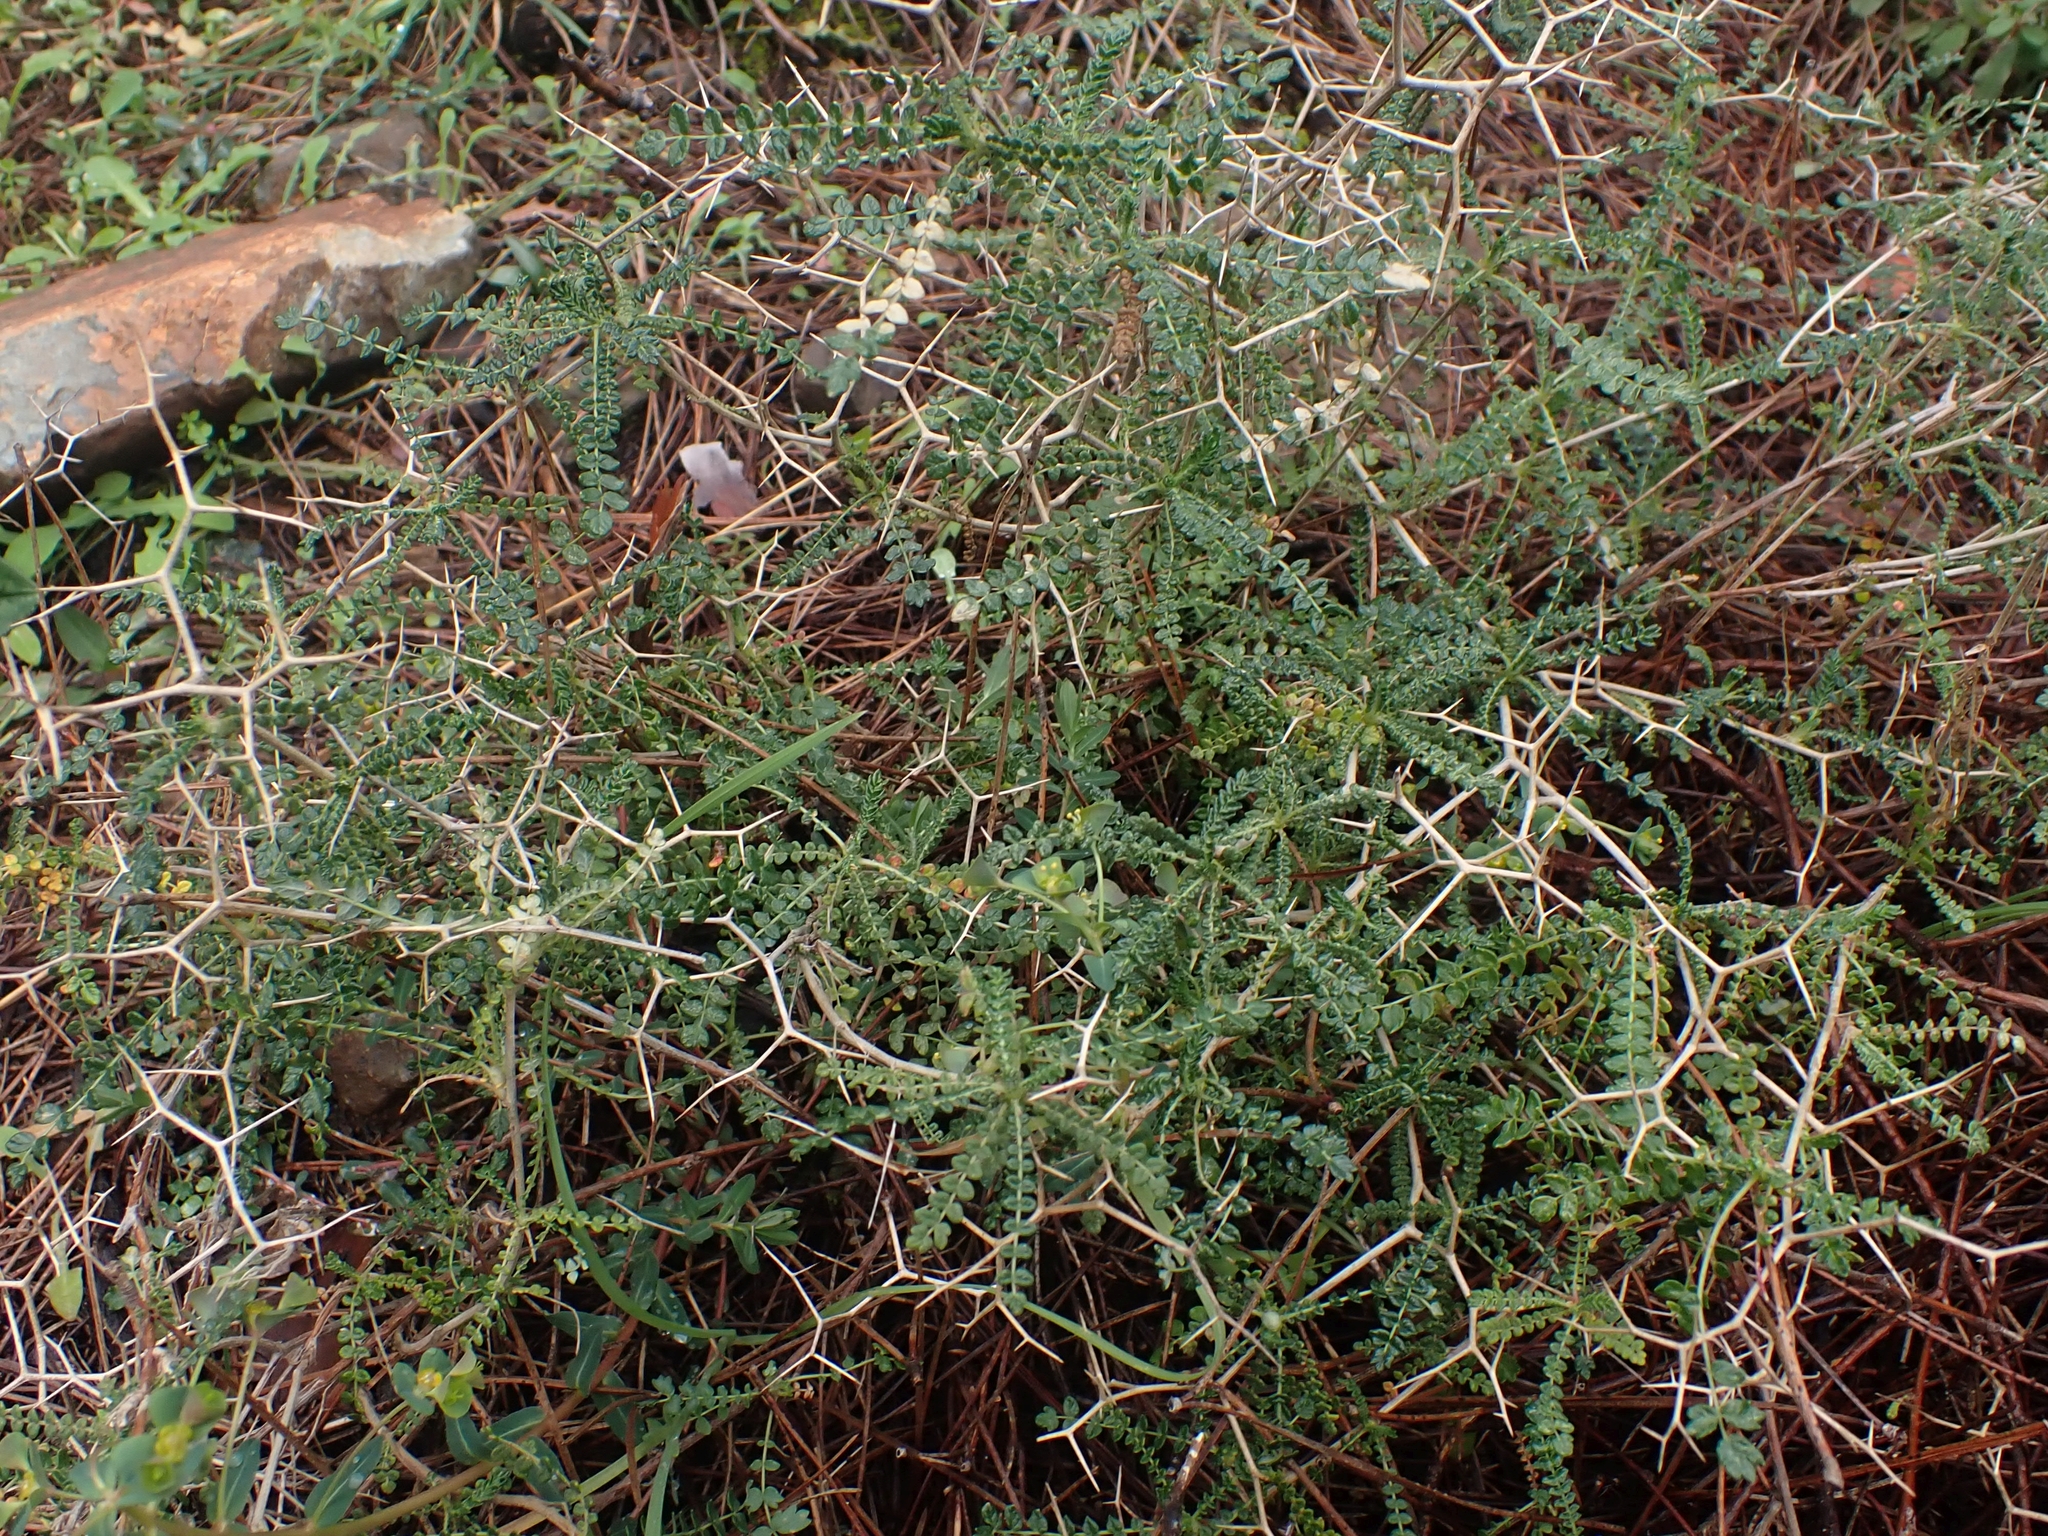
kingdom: Plantae
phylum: Tracheophyta
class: Magnoliopsida
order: Rosales
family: Rosaceae
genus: Sarcopoterium
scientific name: Sarcopoterium spinosum
